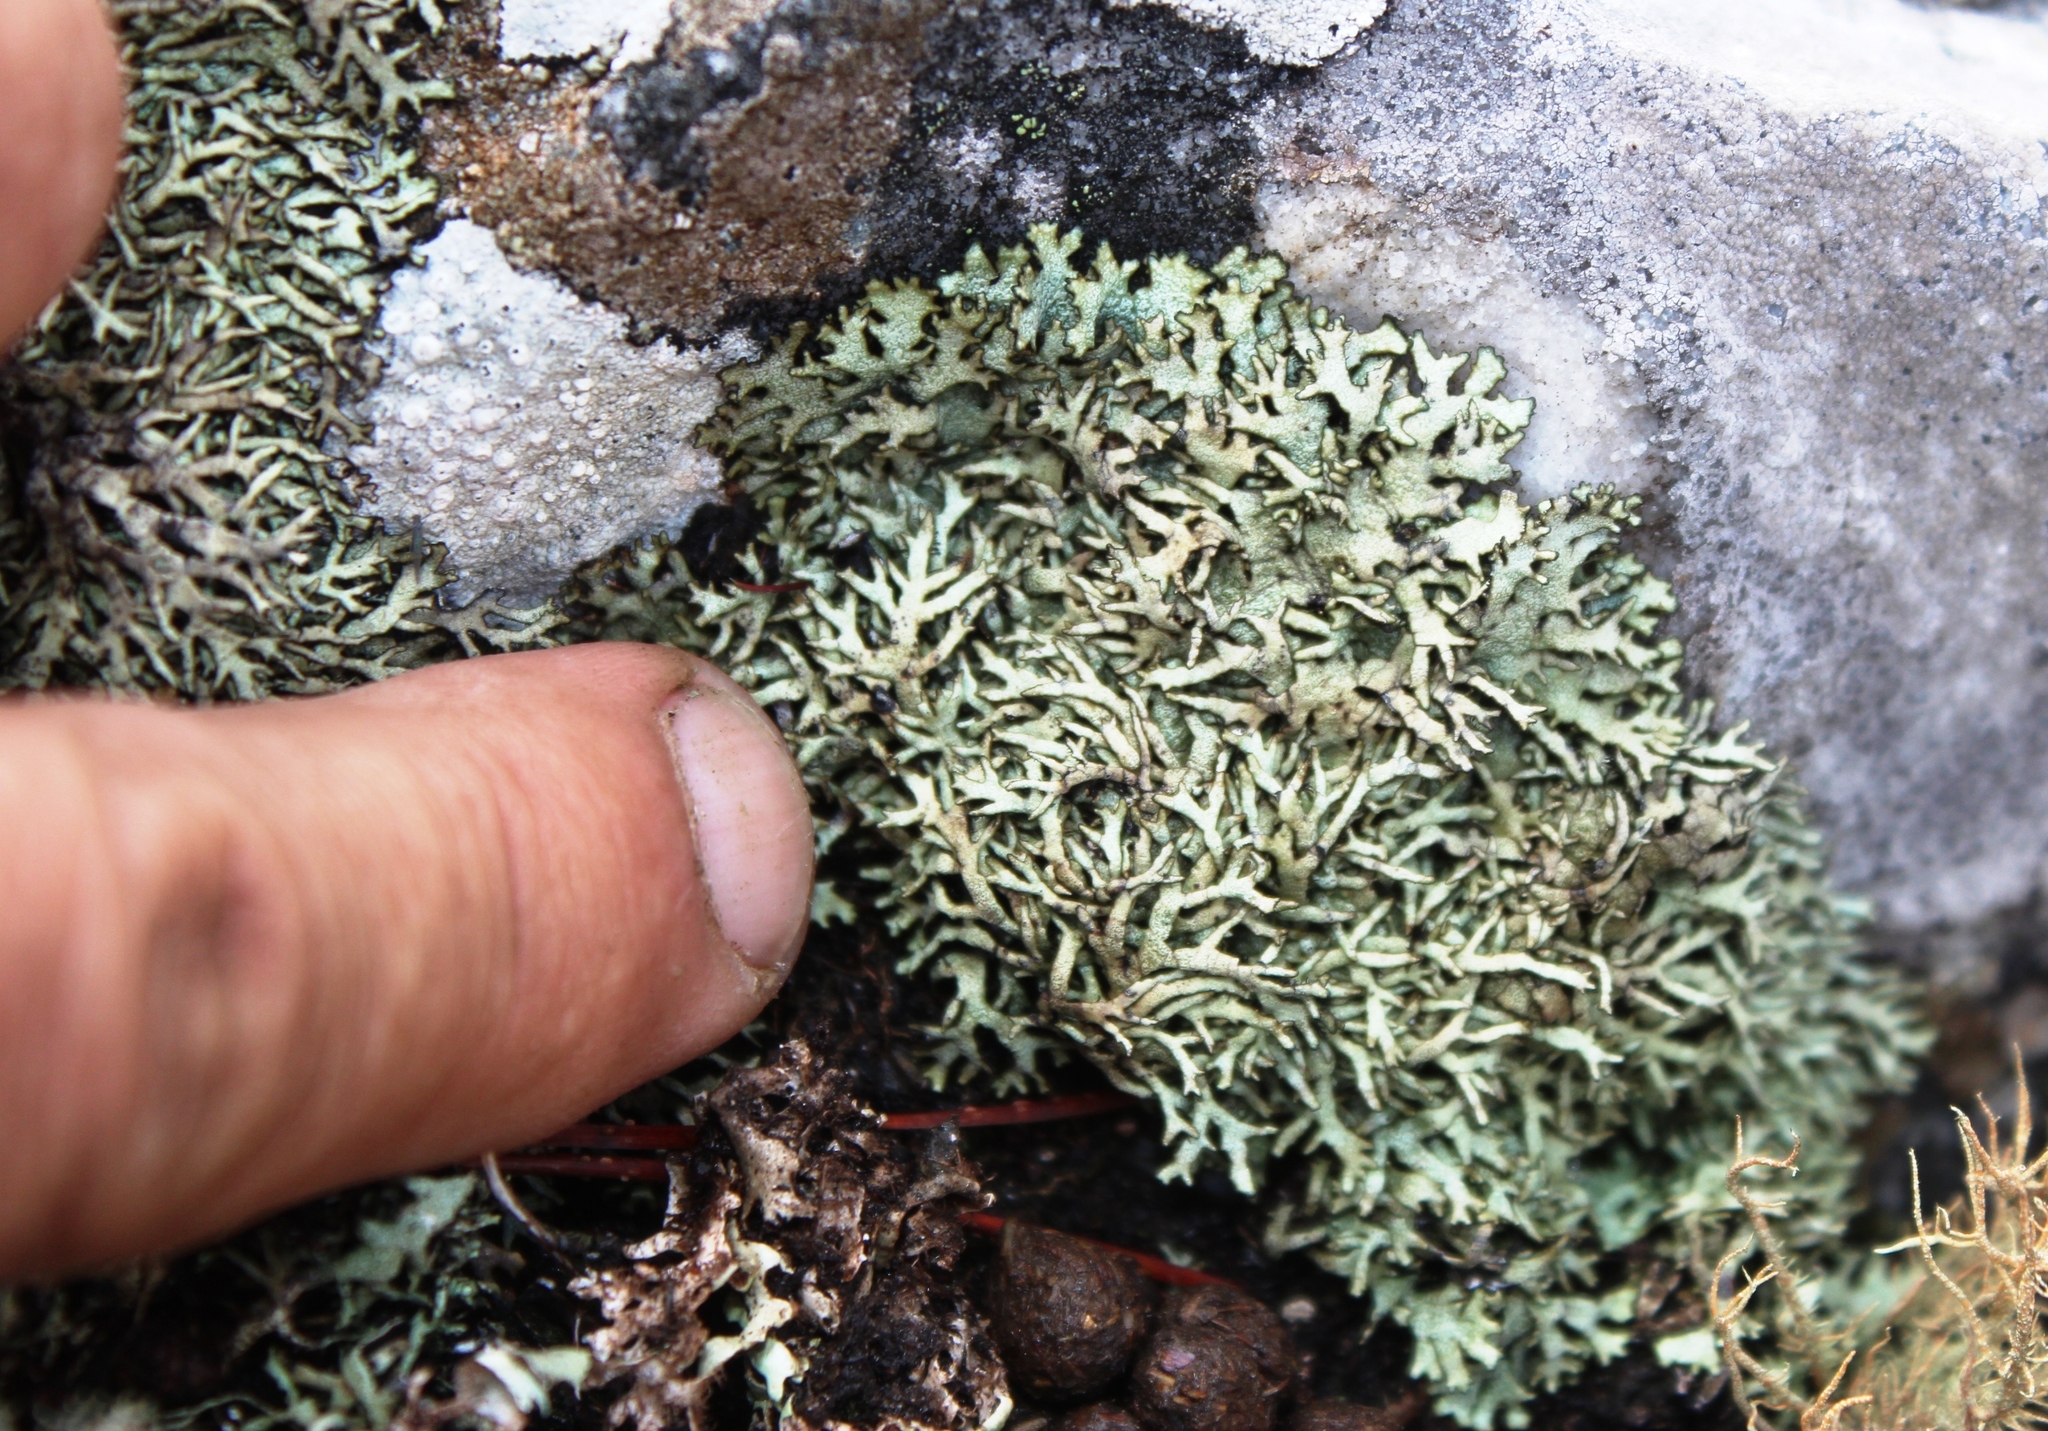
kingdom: Fungi
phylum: Ascomycota
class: Lecanoromycetes
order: Lecanorales
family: Parmeliaceae
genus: Xanthoparmelia
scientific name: Xanthoparmelia neoreptans
